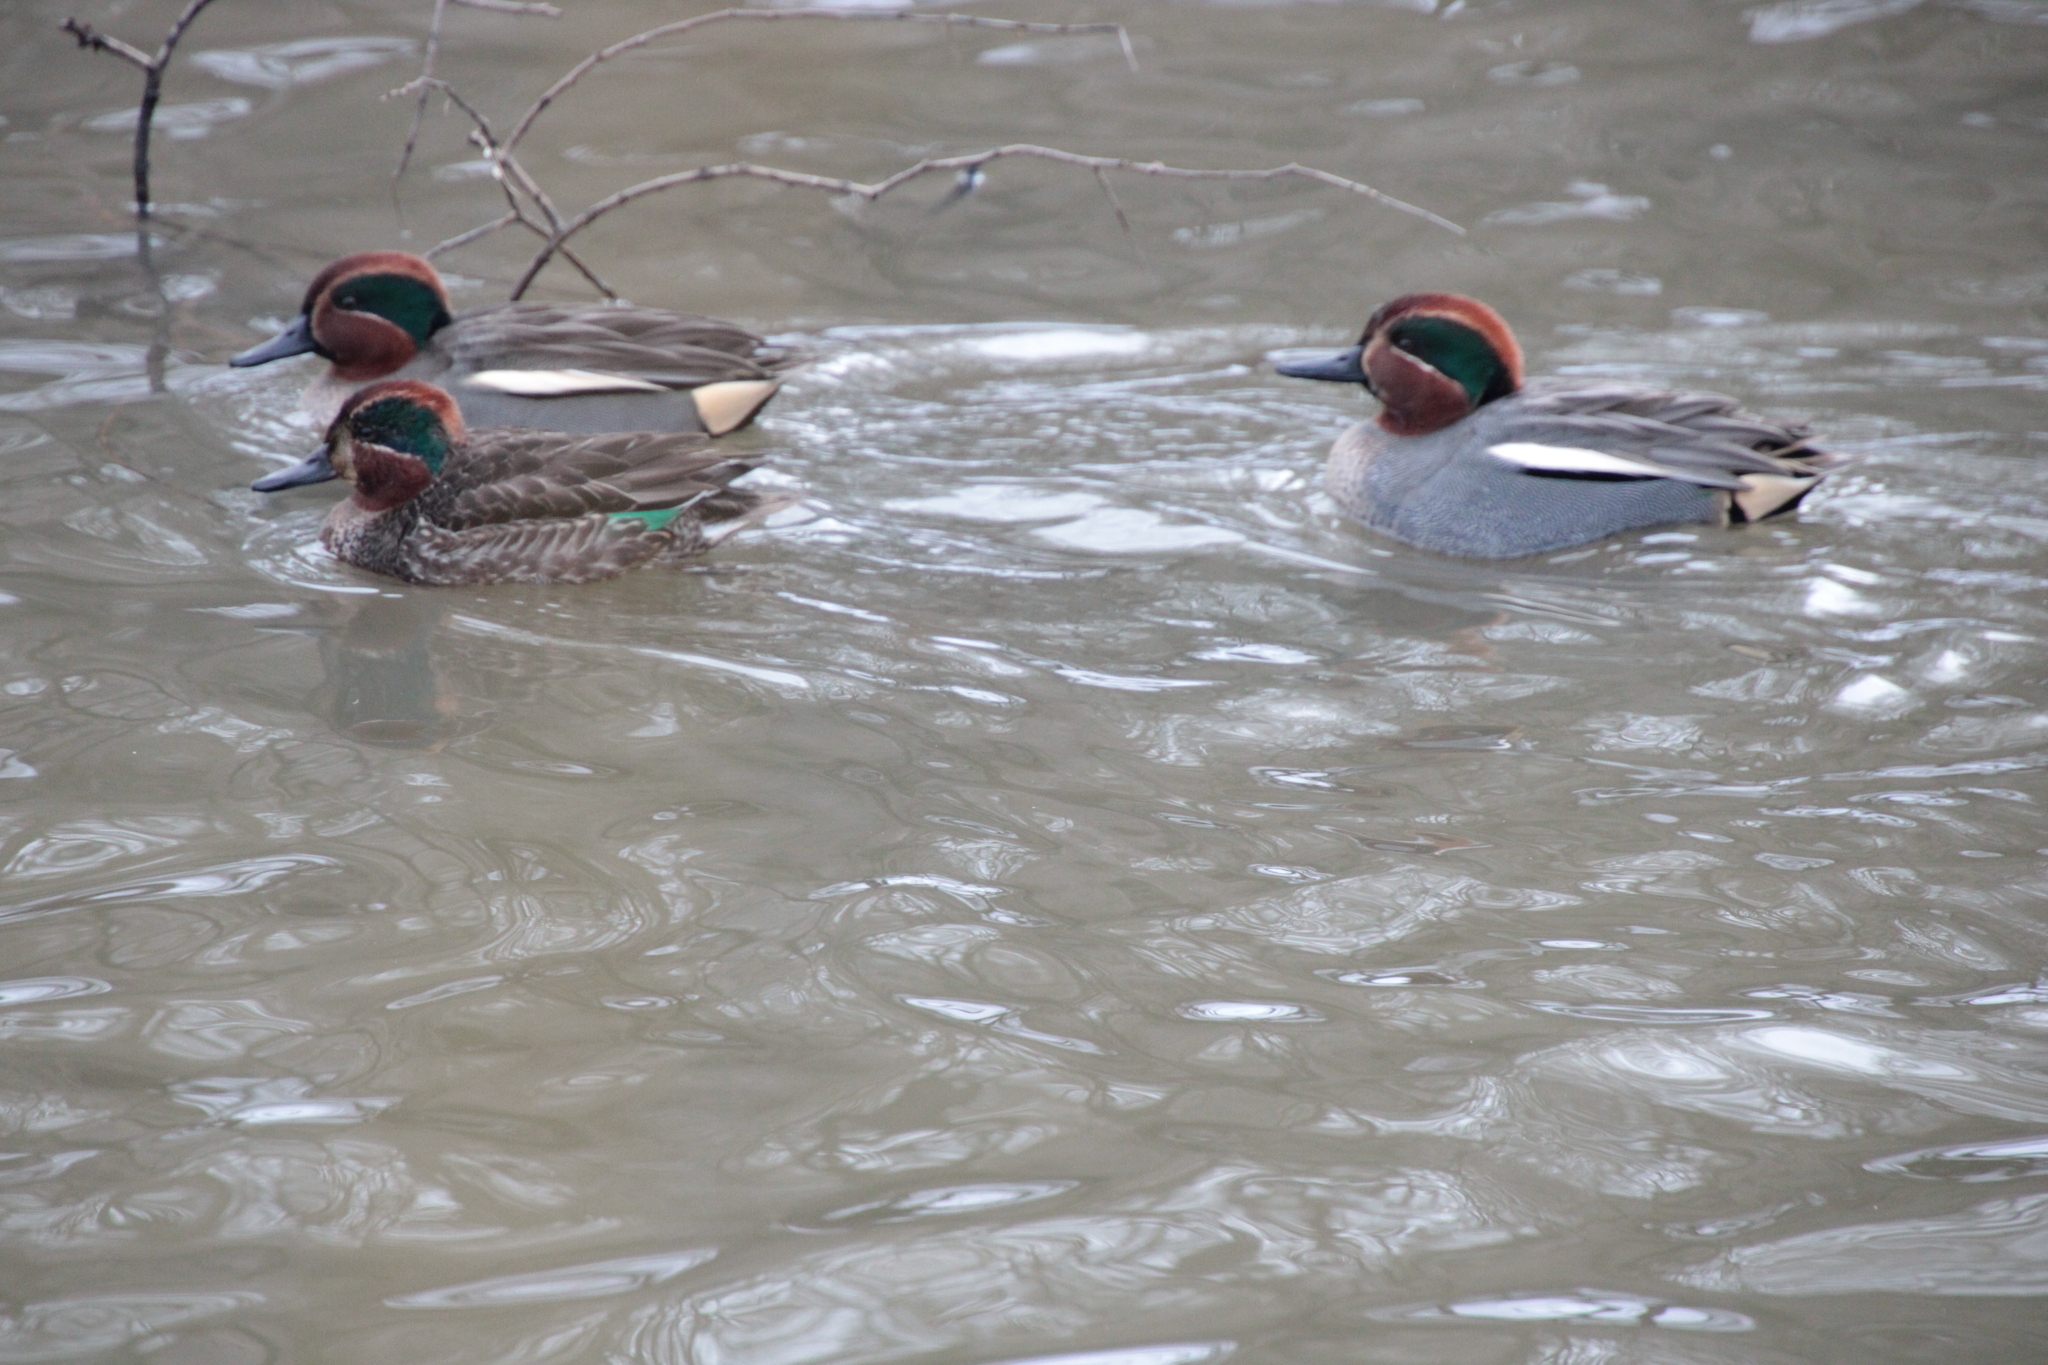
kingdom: Animalia
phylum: Chordata
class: Aves
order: Anseriformes
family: Anatidae
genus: Anas
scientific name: Anas crecca
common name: Eurasian teal
